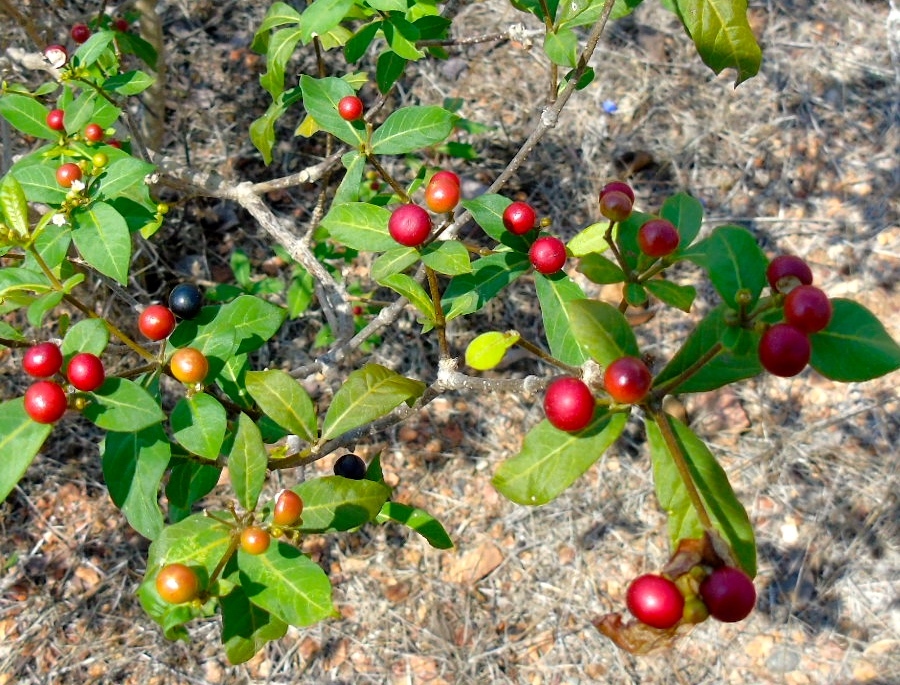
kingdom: Plantae
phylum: Tracheophyta
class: Magnoliopsida
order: Gentianales
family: Apocynaceae
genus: Rauvolfia
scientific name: Rauvolfia tetraphylla
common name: Four-leaf devil-pepper
